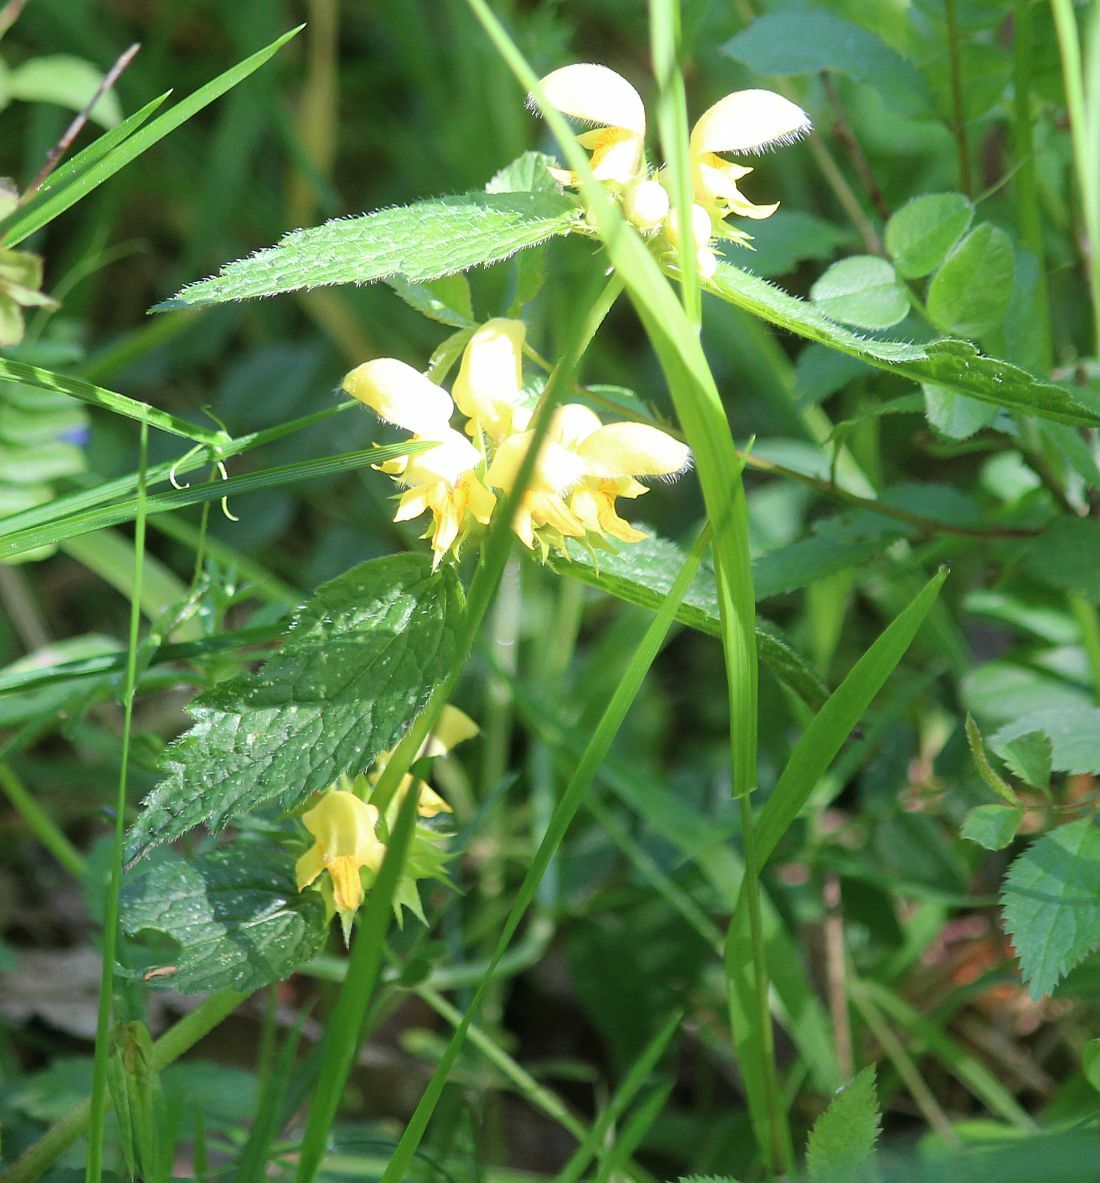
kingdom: Plantae
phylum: Tracheophyta
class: Magnoliopsida
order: Lamiales
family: Lamiaceae
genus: Lamium
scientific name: Lamium galeobdolon
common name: Yellow archangel
